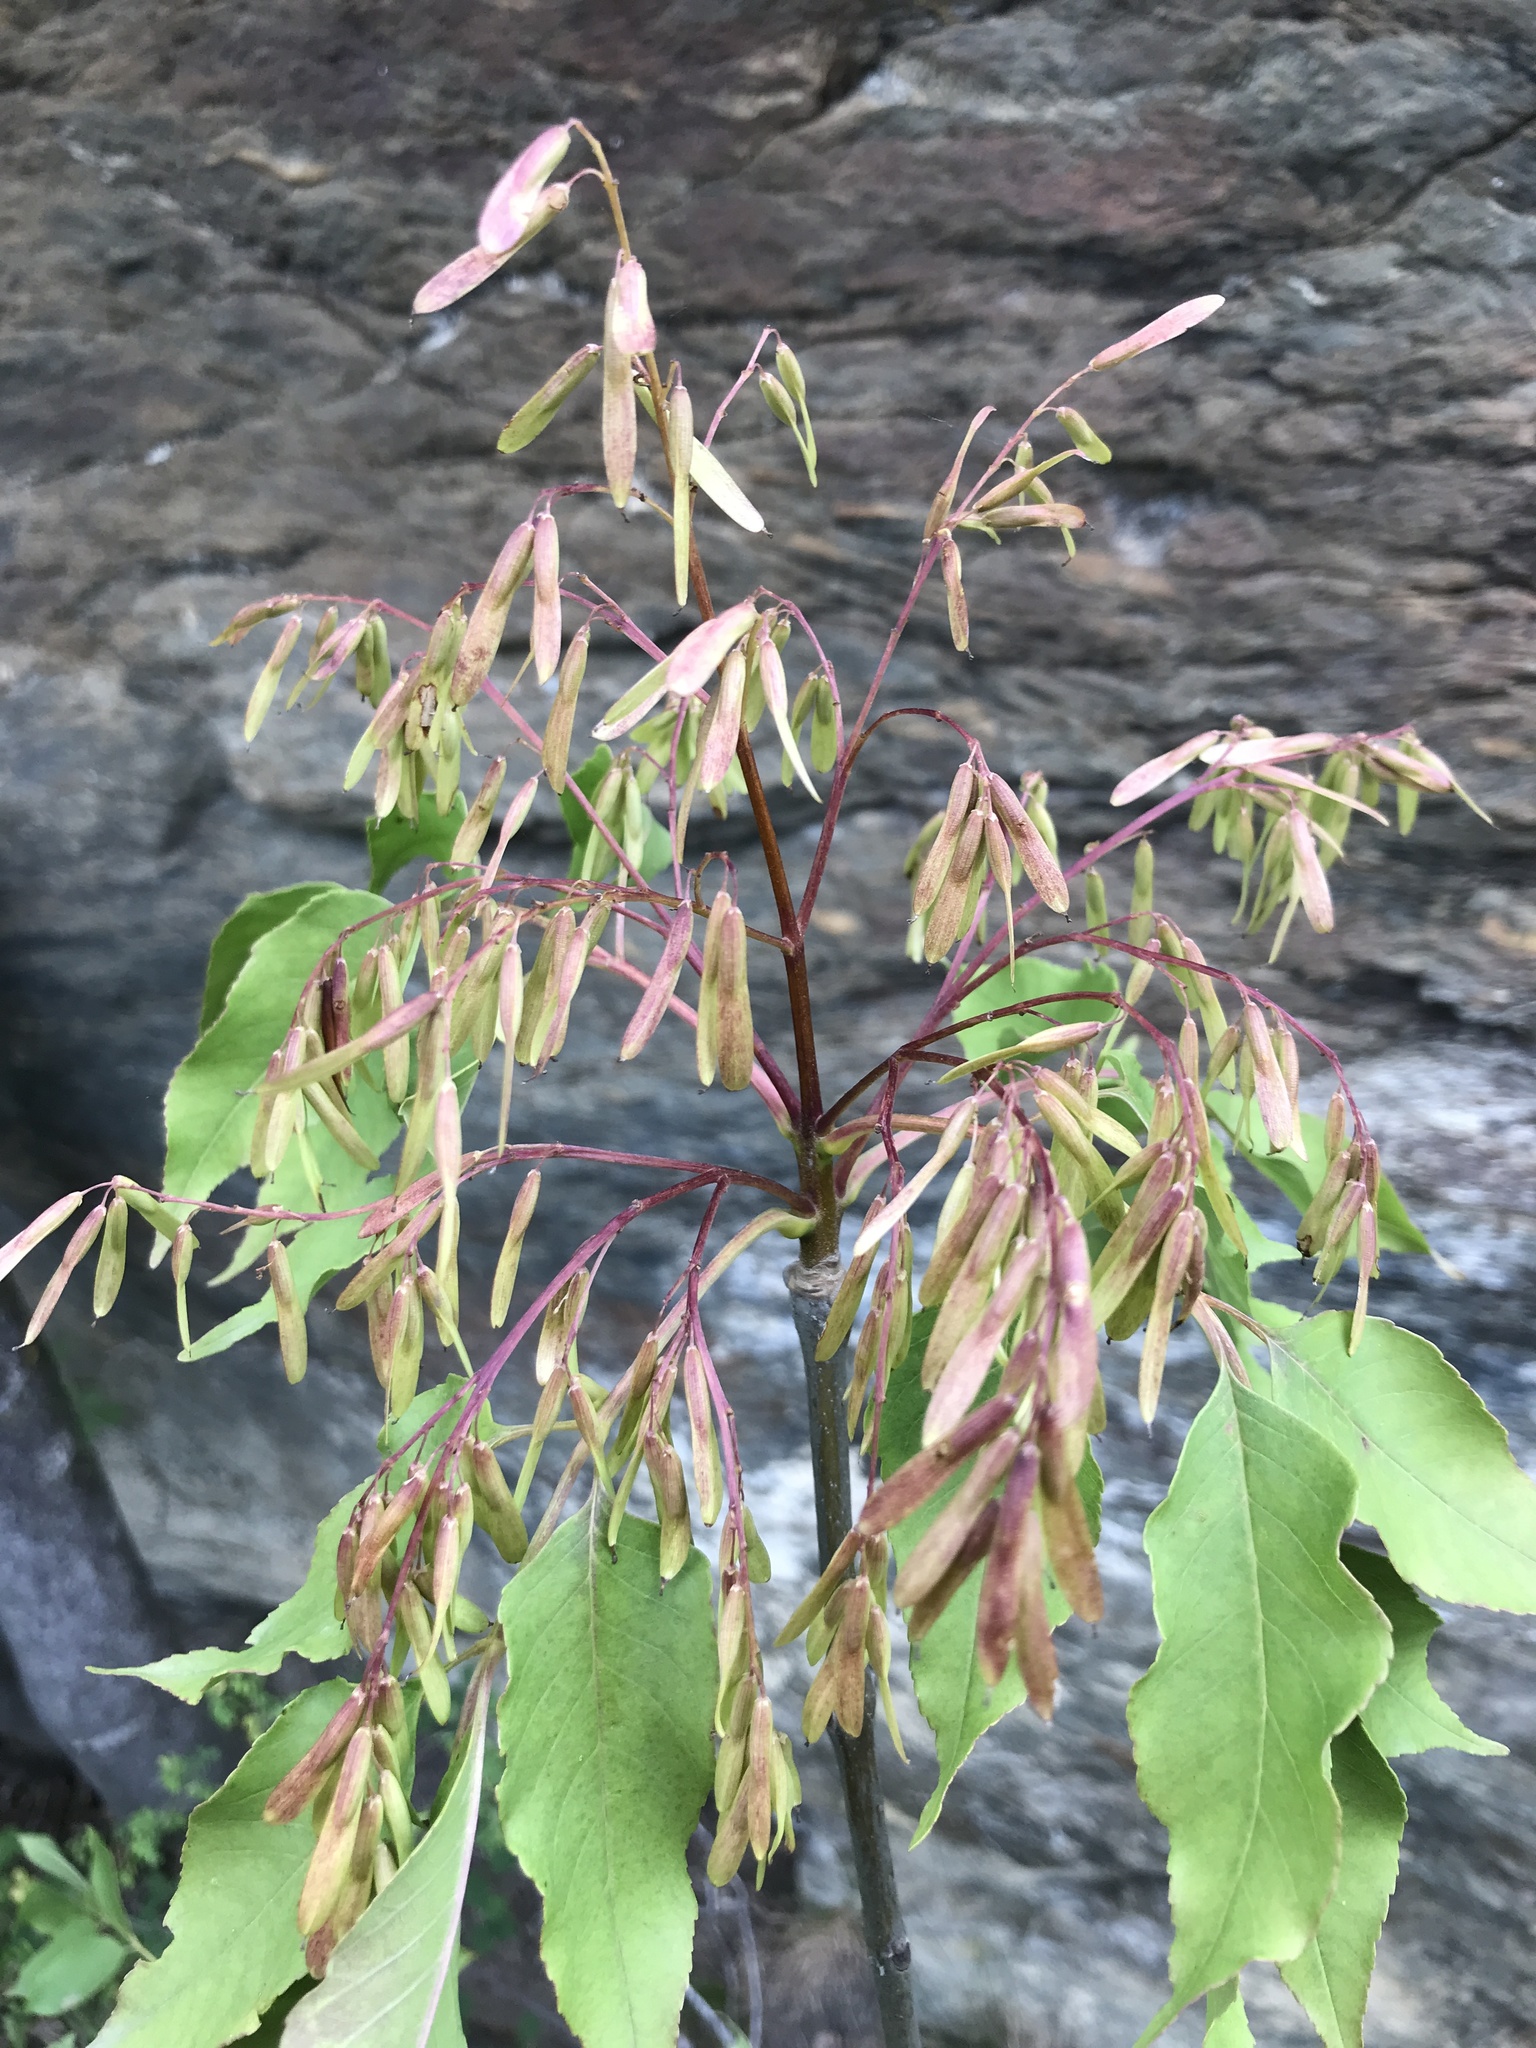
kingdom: Plantae
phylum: Tracheophyta
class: Magnoliopsida
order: Lamiales
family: Oleaceae
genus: Fraxinus
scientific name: Fraxinus ornus
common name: Manna ash
